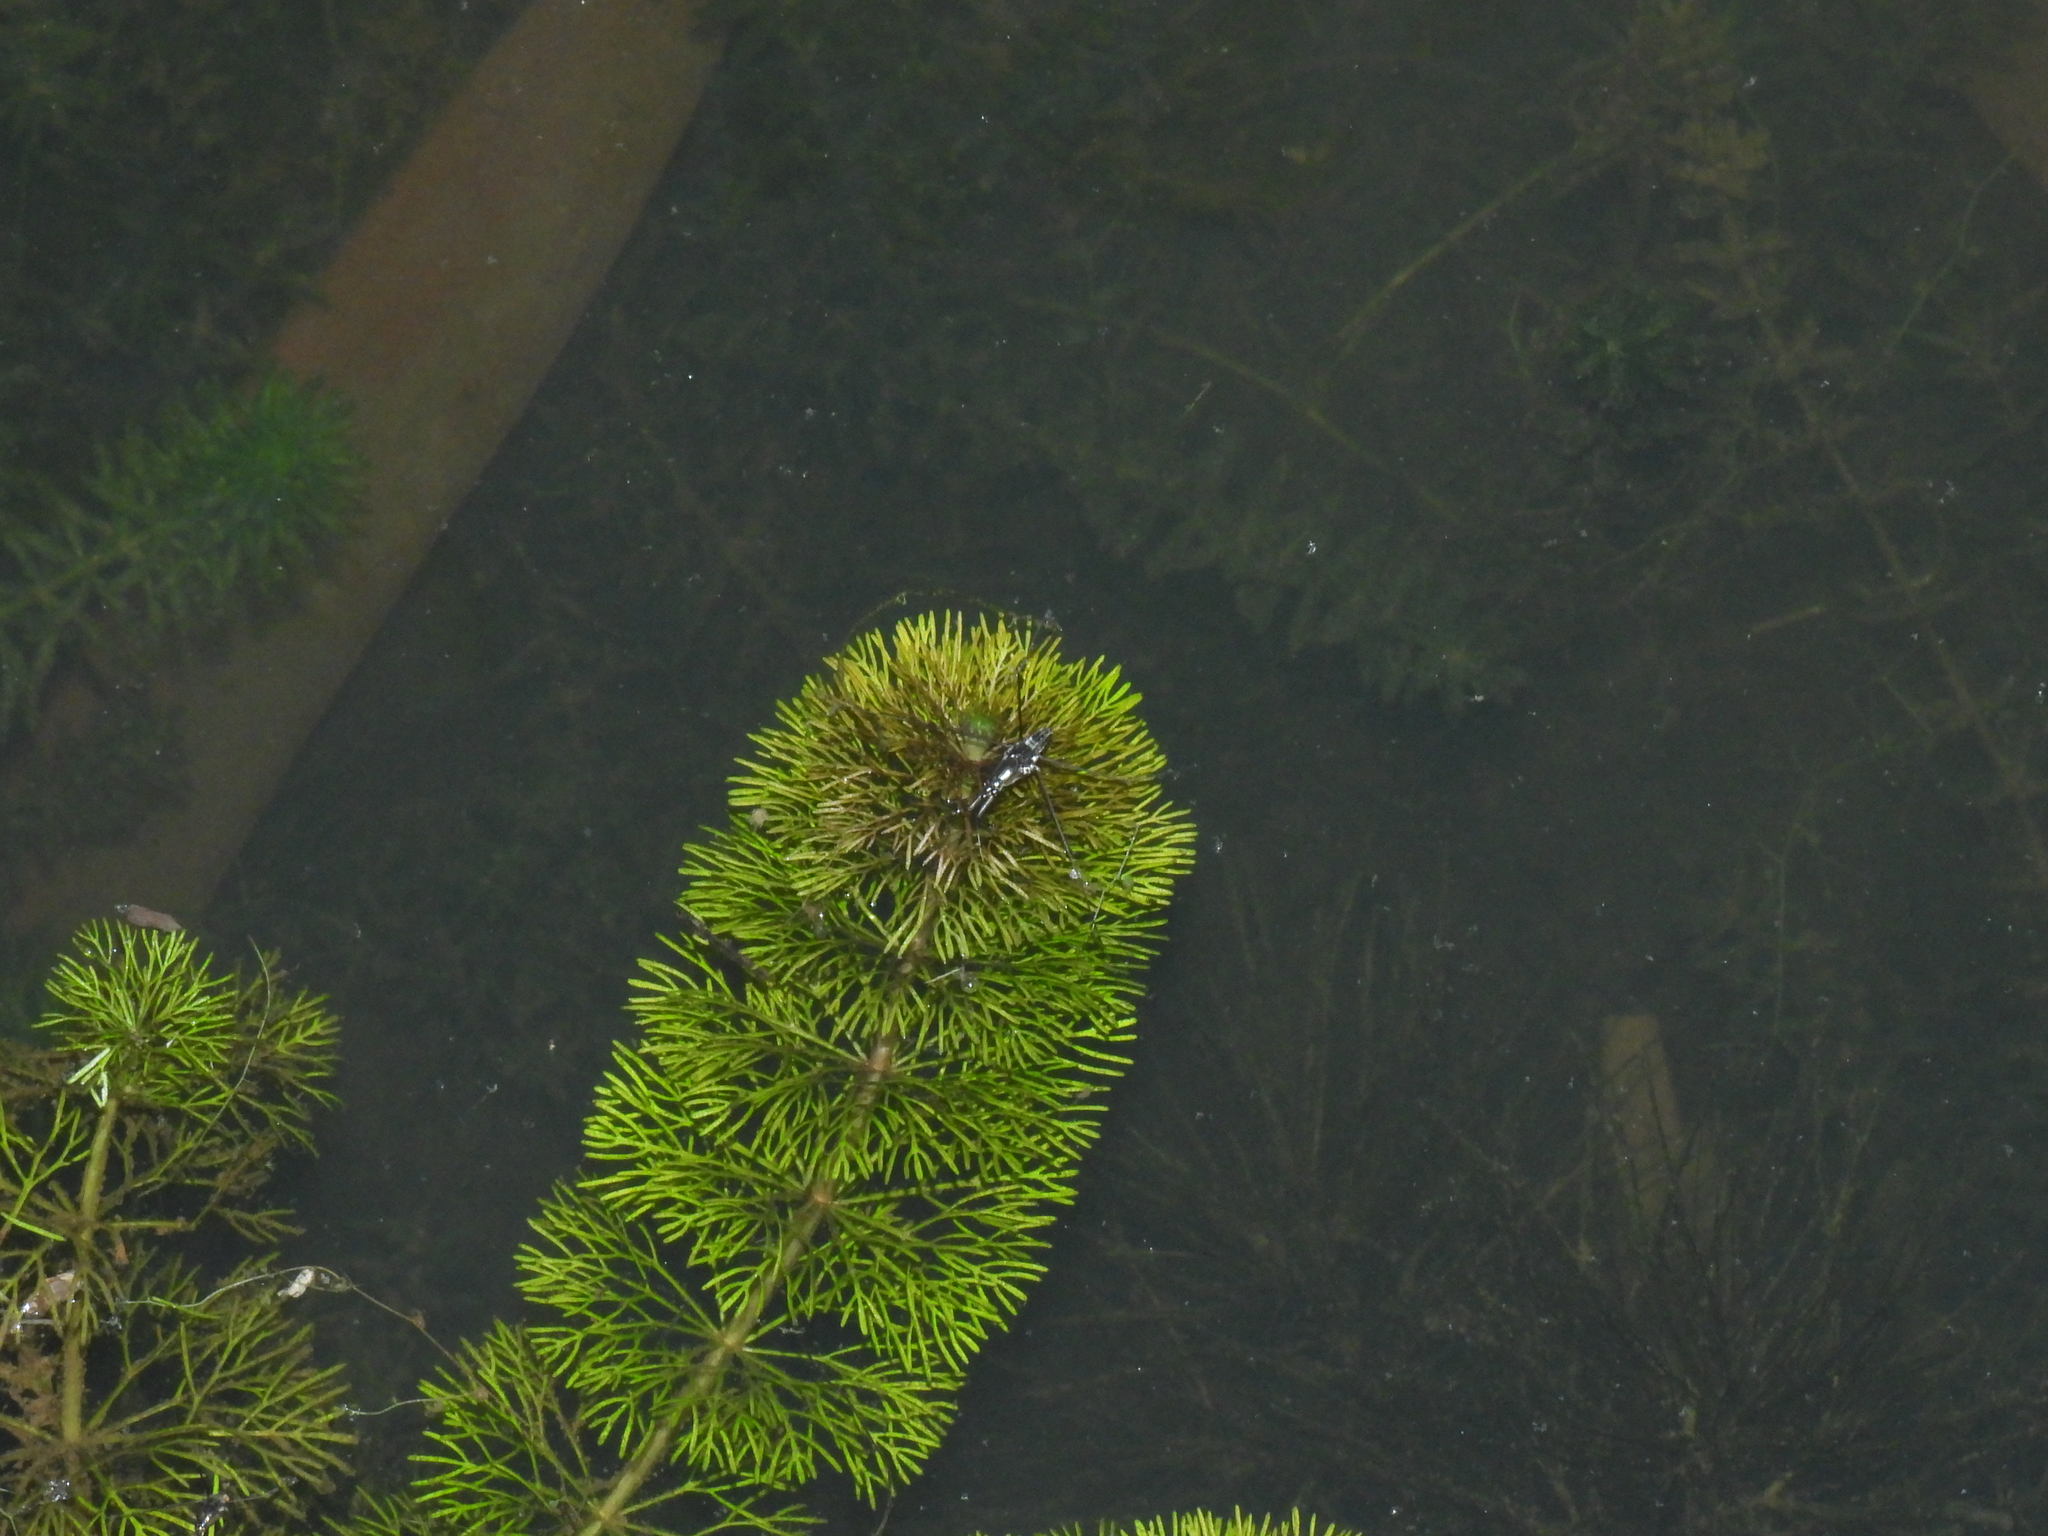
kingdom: Animalia
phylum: Arthropoda
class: Insecta
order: Hemiptera
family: Gerridae
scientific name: Gerridae
